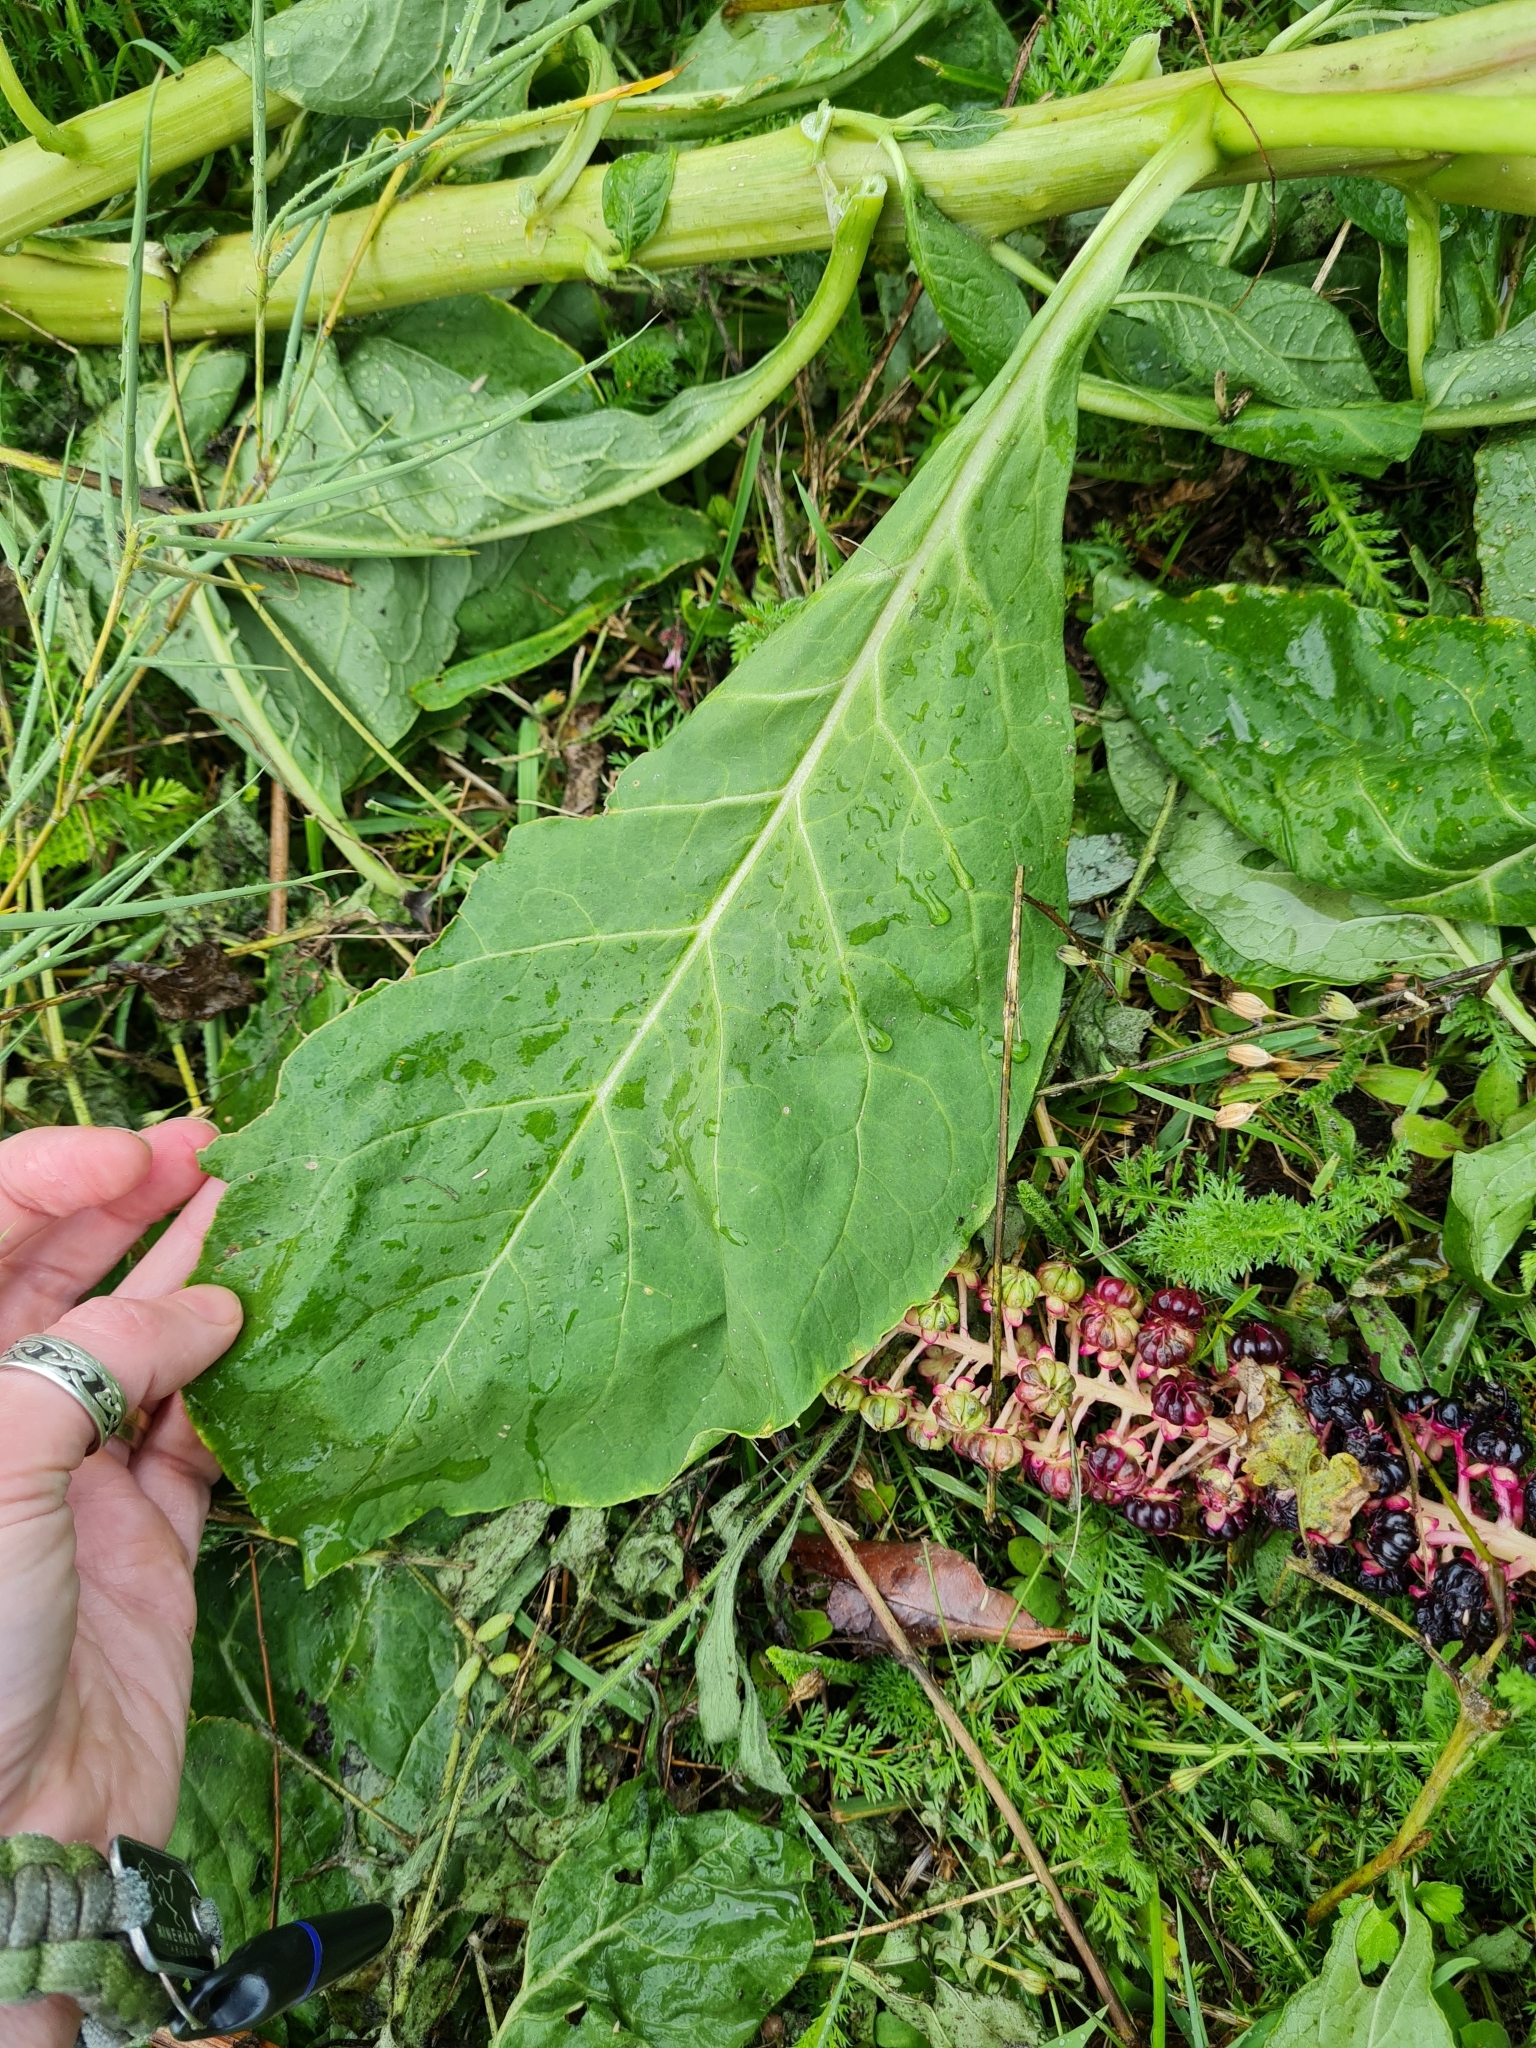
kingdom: Plantae
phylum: Tracheophyta
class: Magnoliopsida
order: Caryophyllales
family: Phytolaccaceae
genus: Phytolacca
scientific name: Phytolacca acinosa
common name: Indian pokeweed
